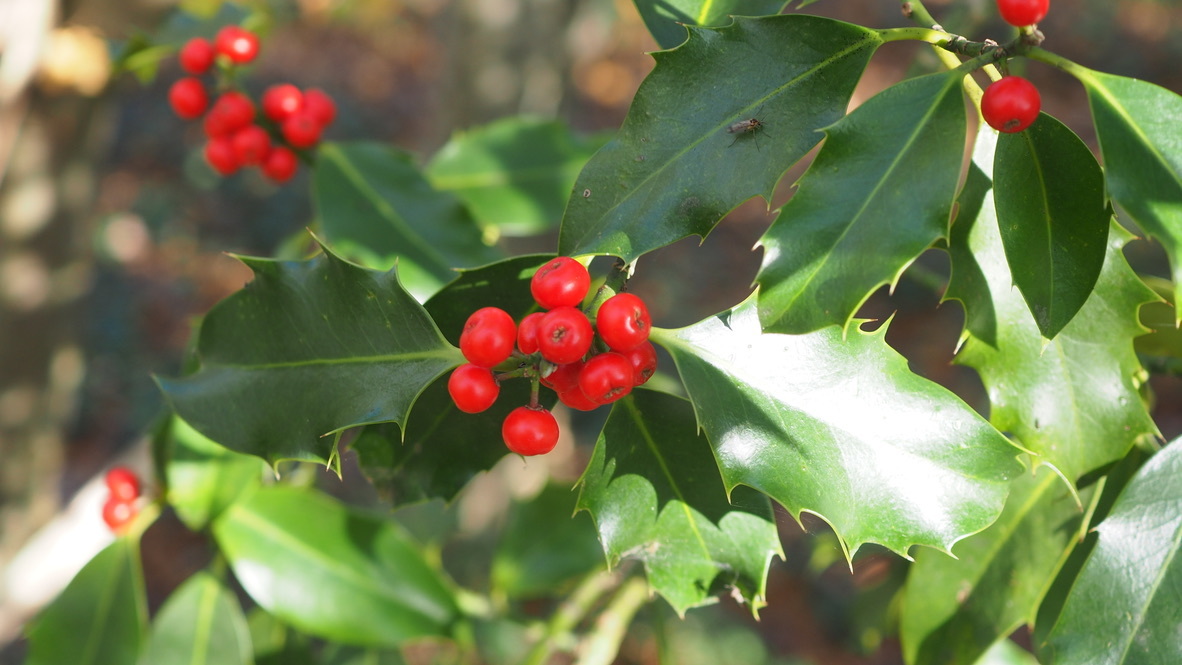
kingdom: Plantae
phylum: Tracheophyta
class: Magnoliopsida
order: Aquifoliales
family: Aquifoliaceae
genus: Ilex
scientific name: Ilex aquifolium
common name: English holly
